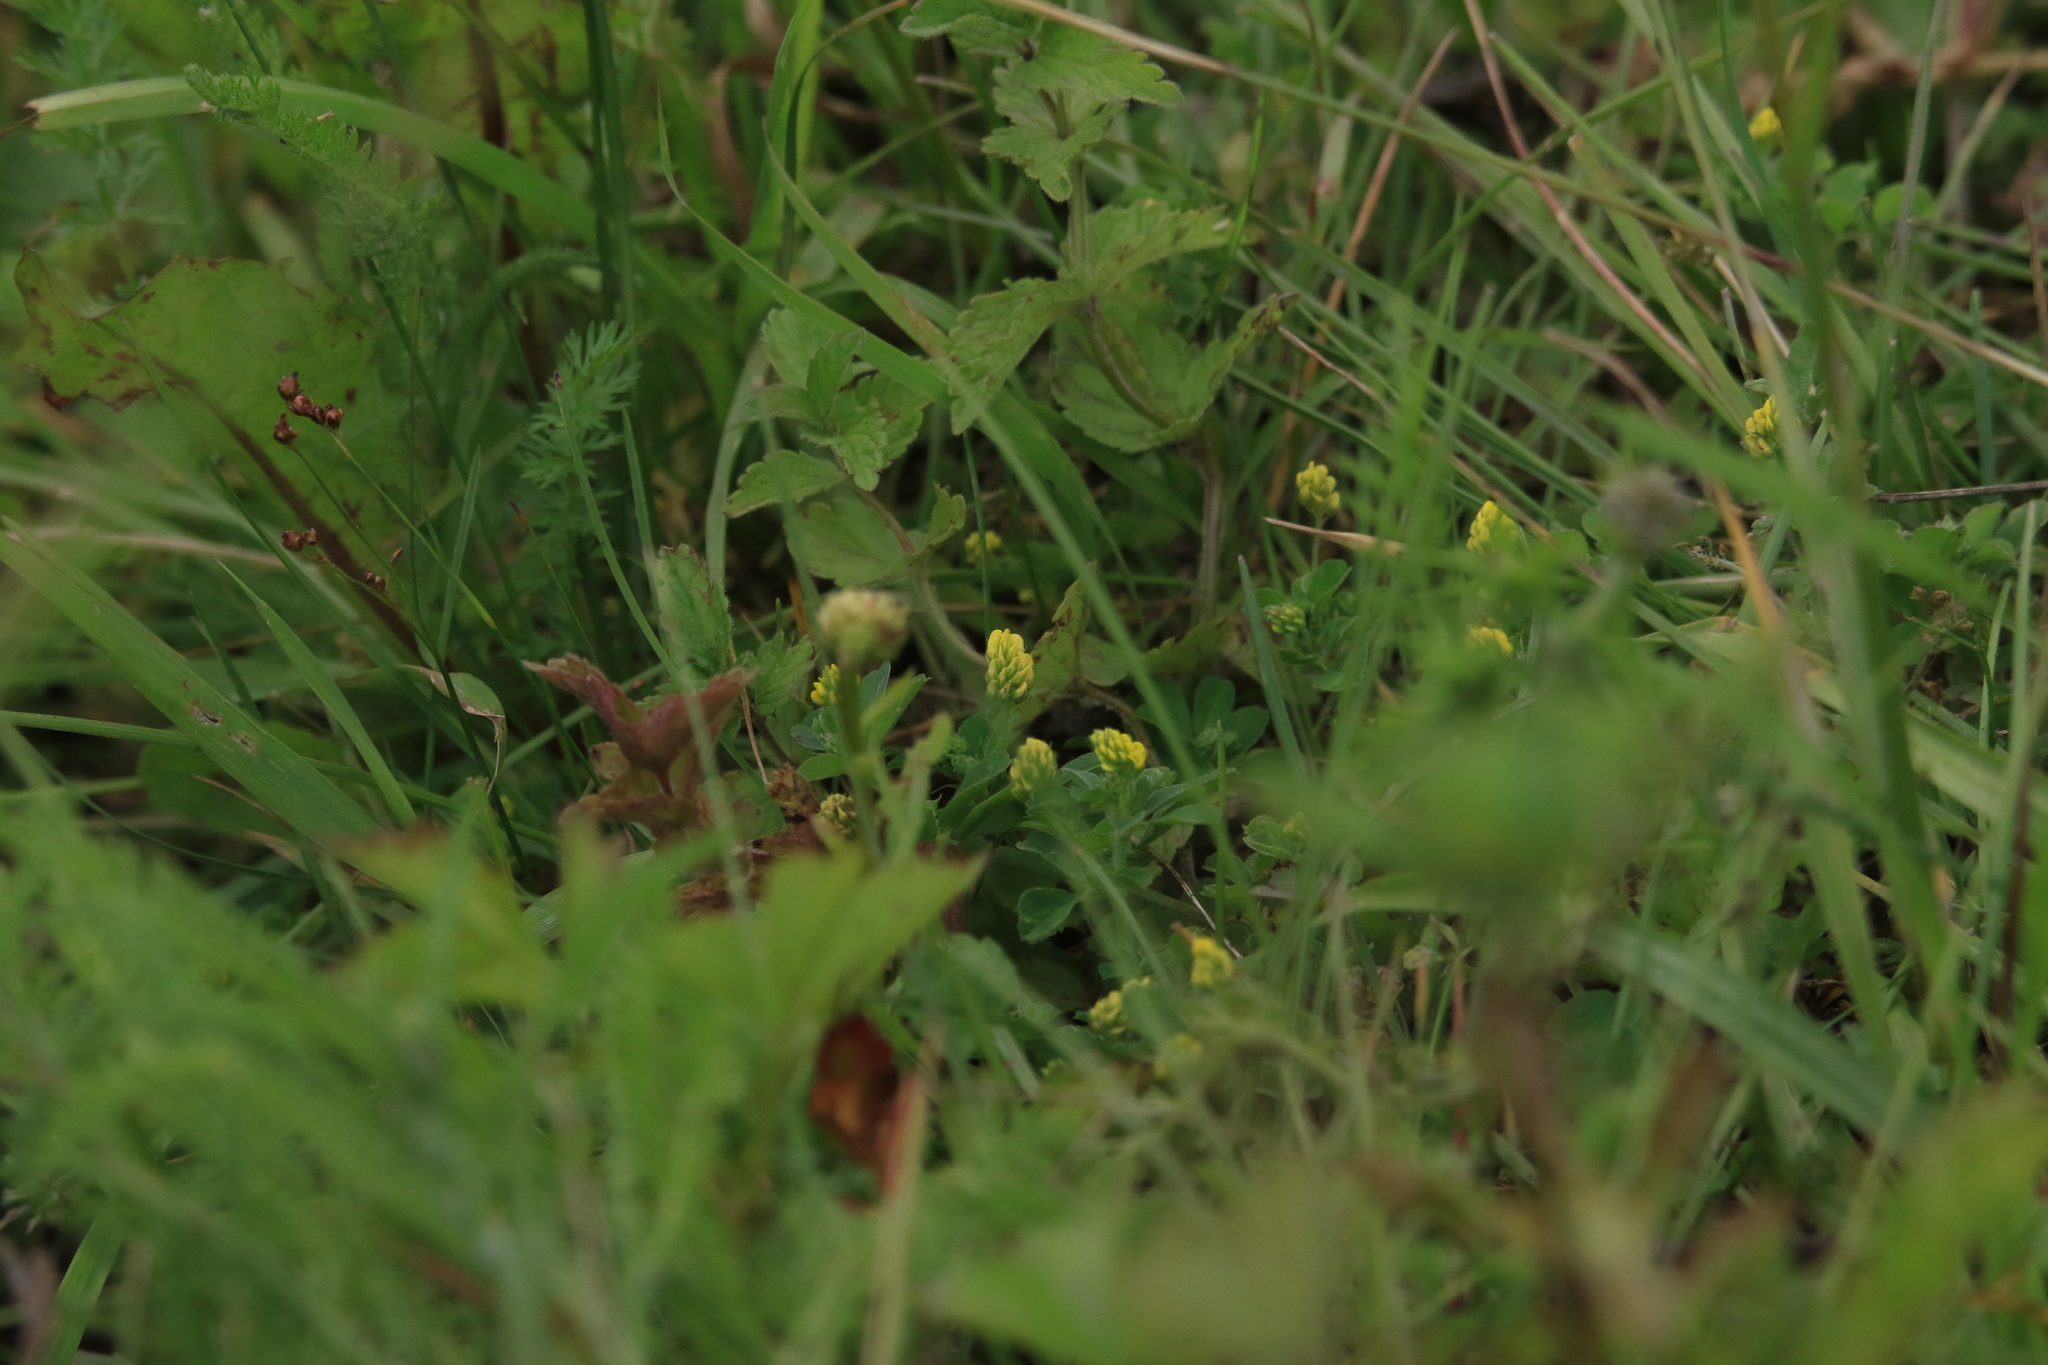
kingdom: Plantae
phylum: Tracheophyta
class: Magnoliopsida
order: Fabales
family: Fabaceae
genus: Medicago
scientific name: Medicago lupulina
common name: Black medick
